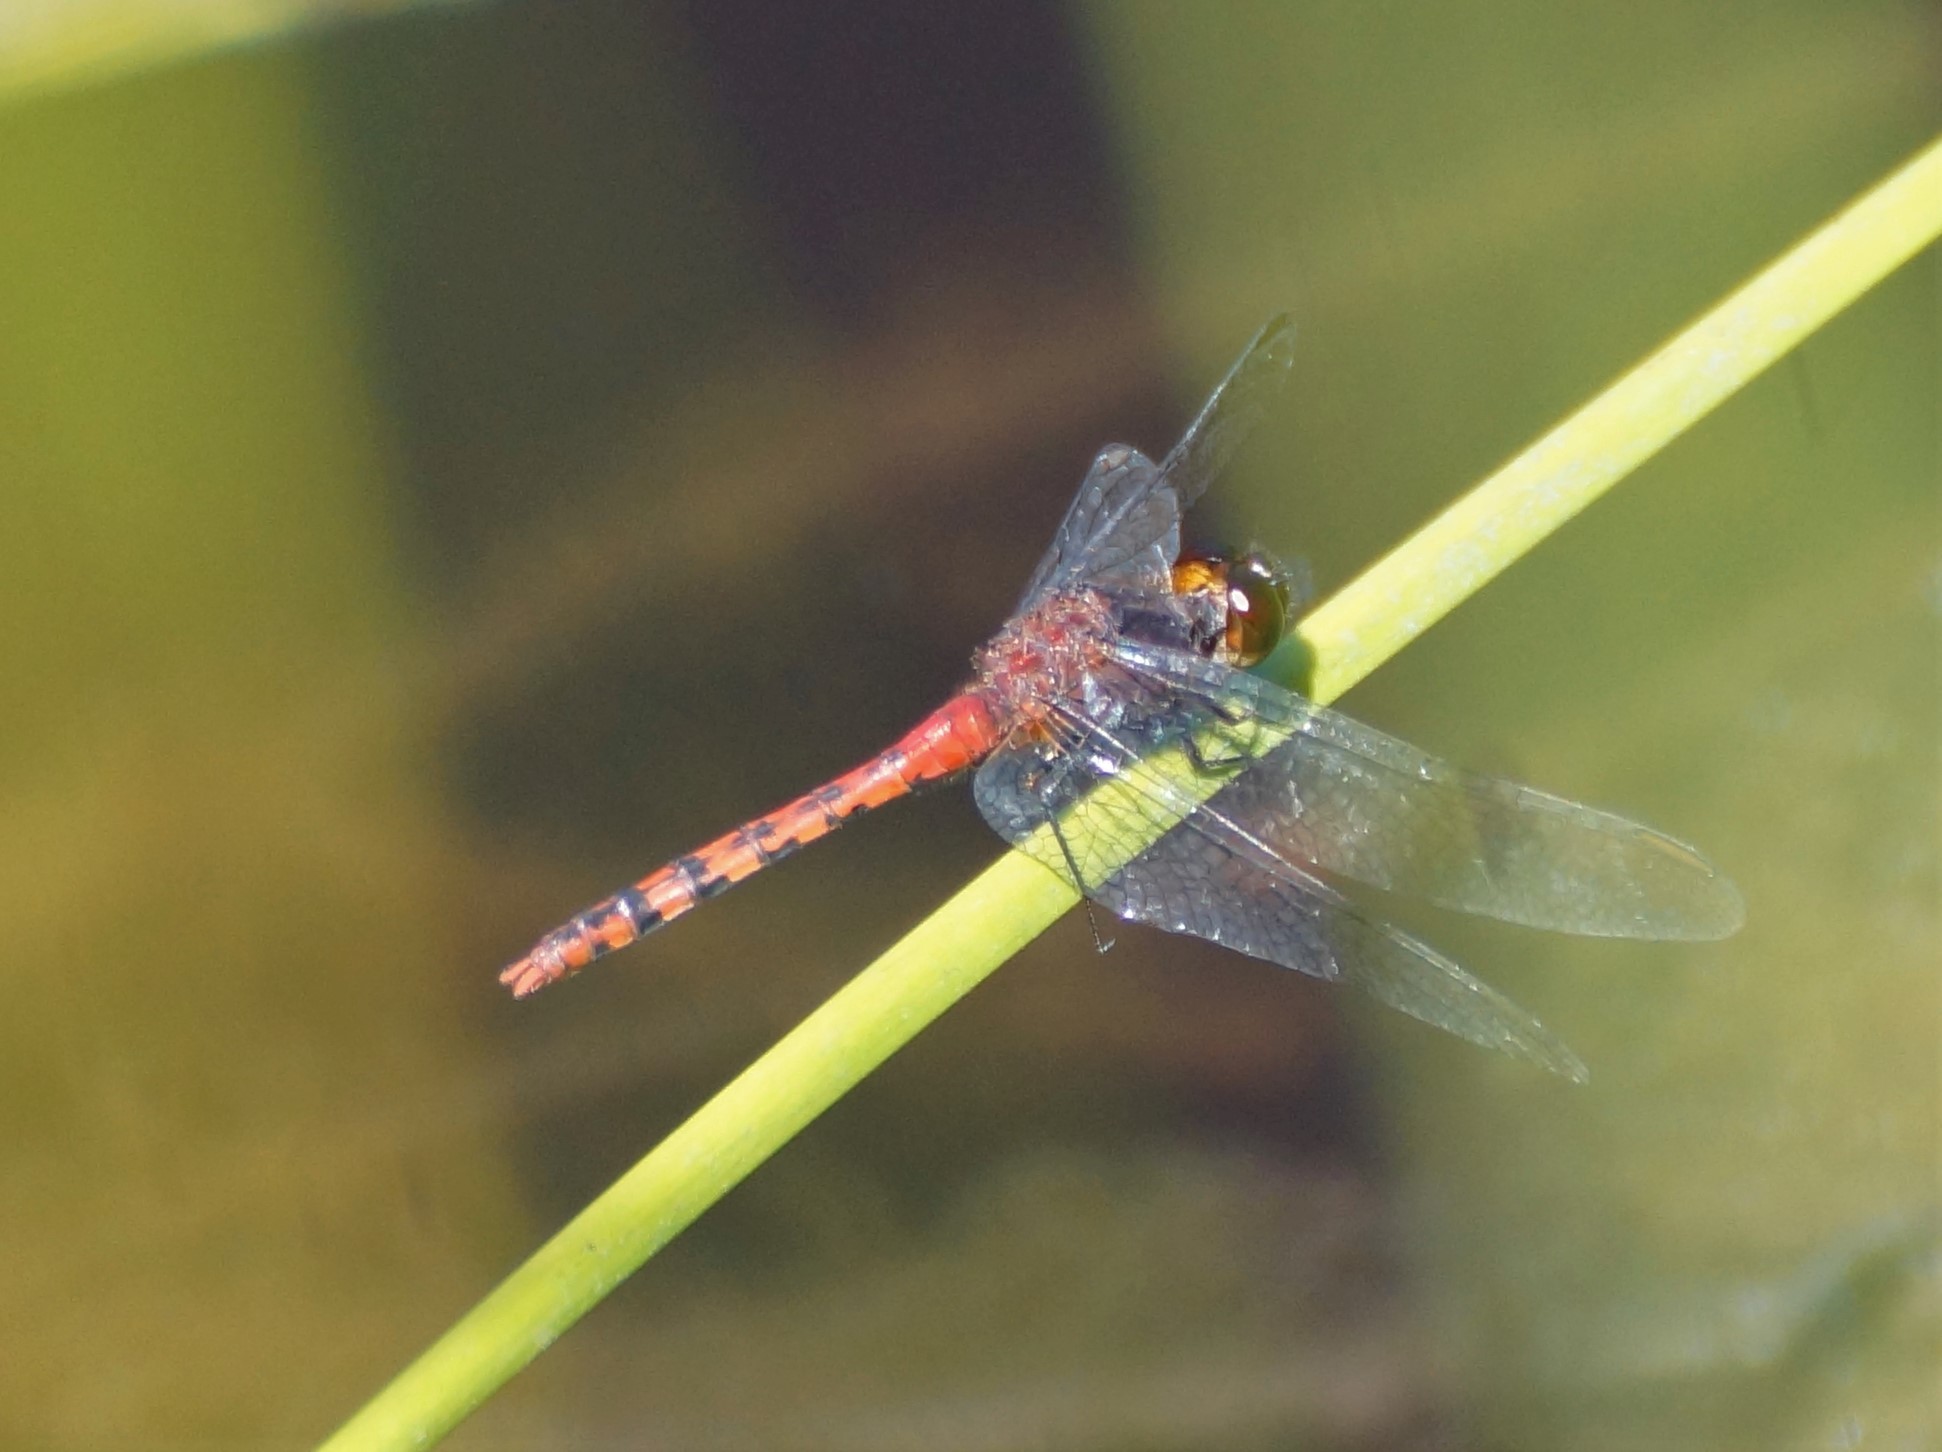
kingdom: Animalia
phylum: Arthropoda
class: Insecta
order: Odonata
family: Libellulidae
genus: Diplacodes
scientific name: Diplacodes melanopsis
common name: Black-faced percher
